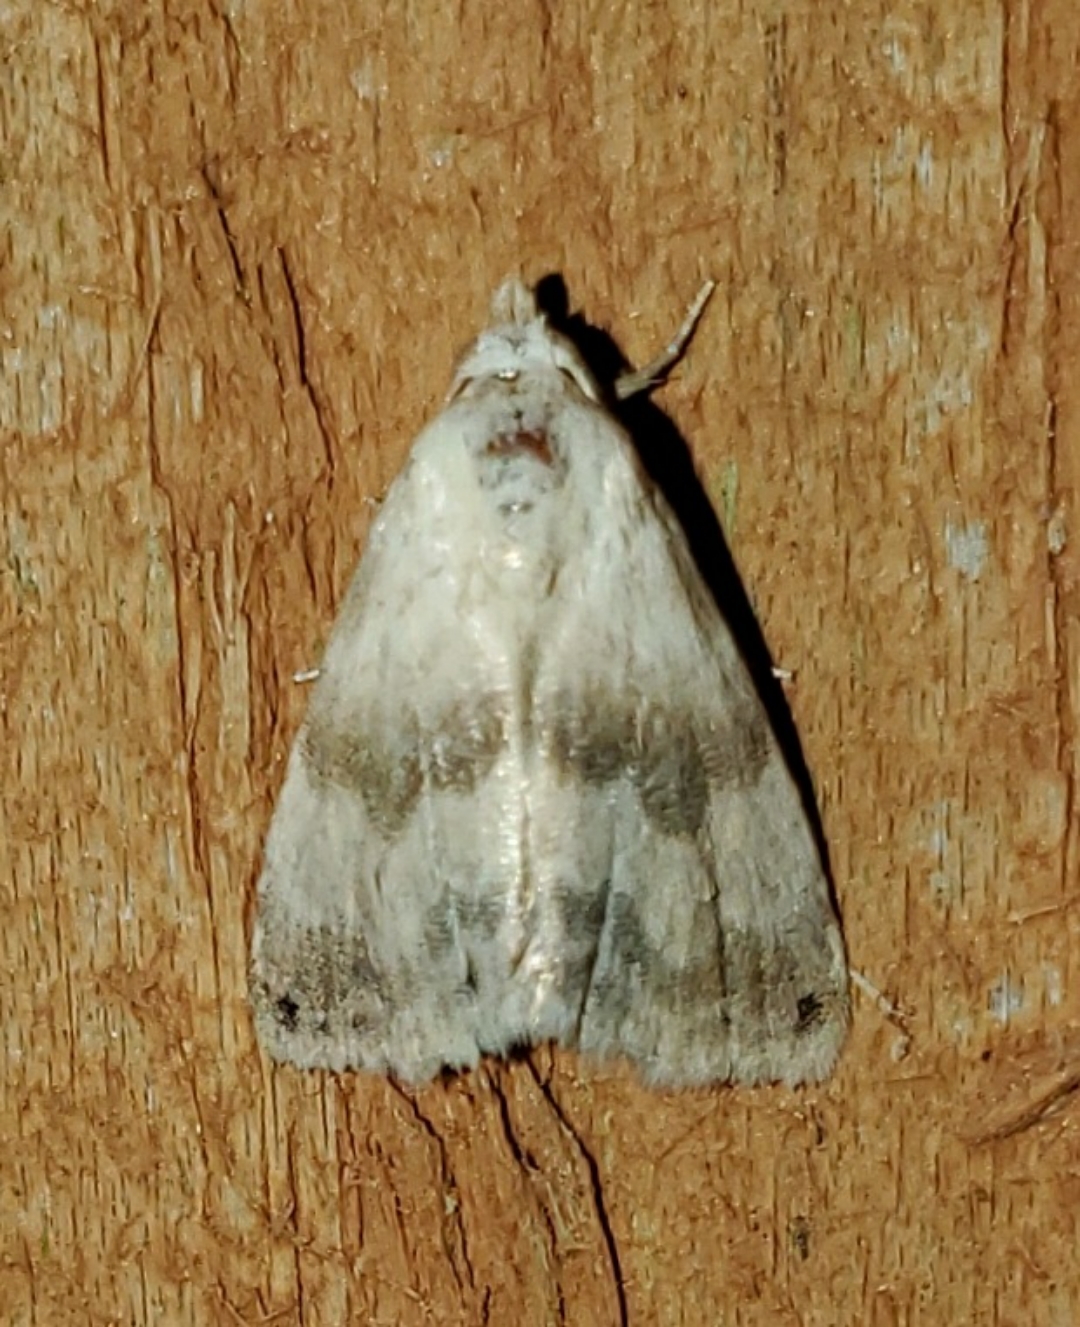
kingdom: Animalia
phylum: Arthropoda
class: Insecta
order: Lepidoptera
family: Noctuidae
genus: Eublemma
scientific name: Eublemma minima
